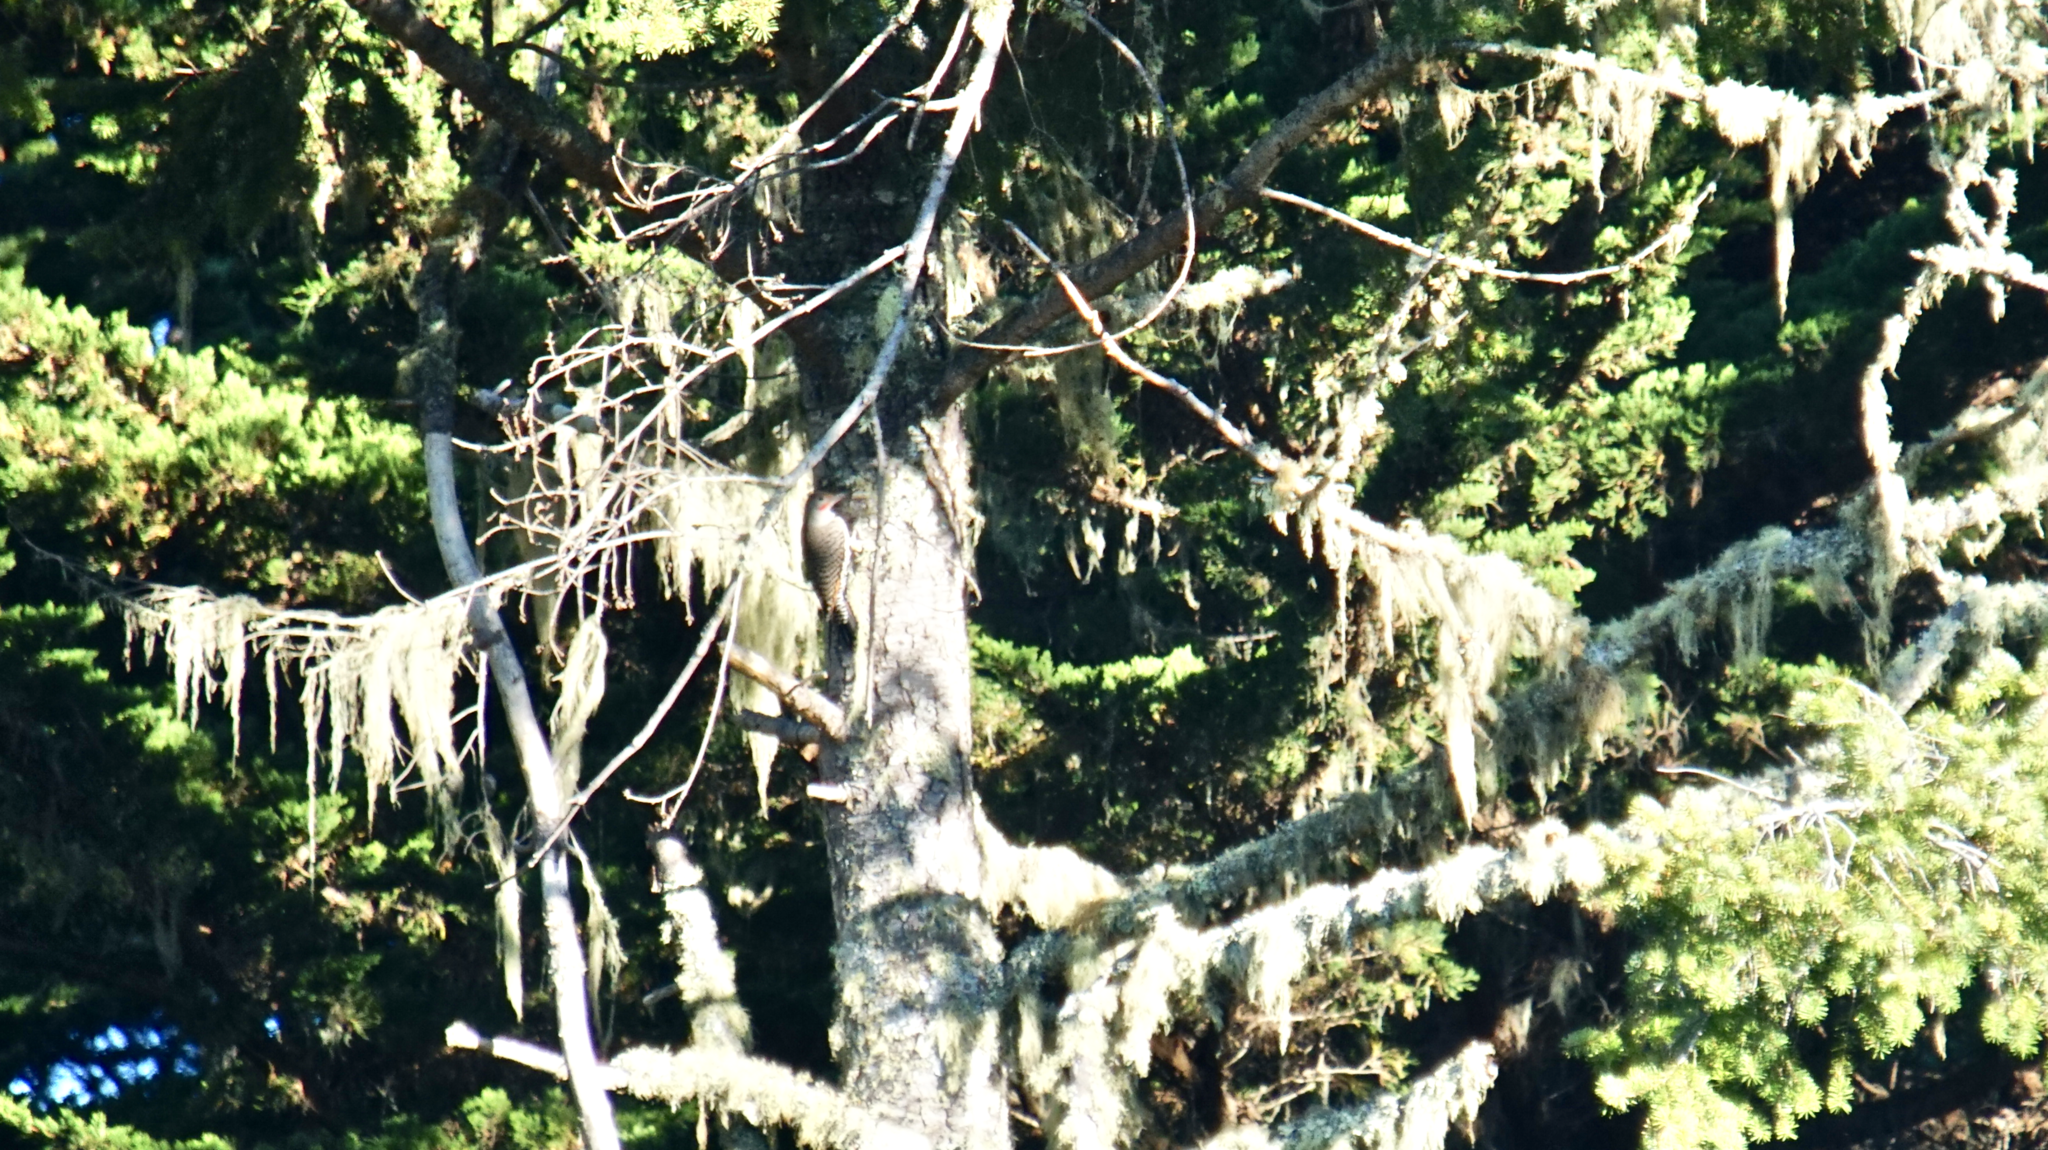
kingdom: Animalia
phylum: Chordata
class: Aves
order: Piciformes
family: Picidae
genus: Colaptes
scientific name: Colaptes auratus
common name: Northern flicker
